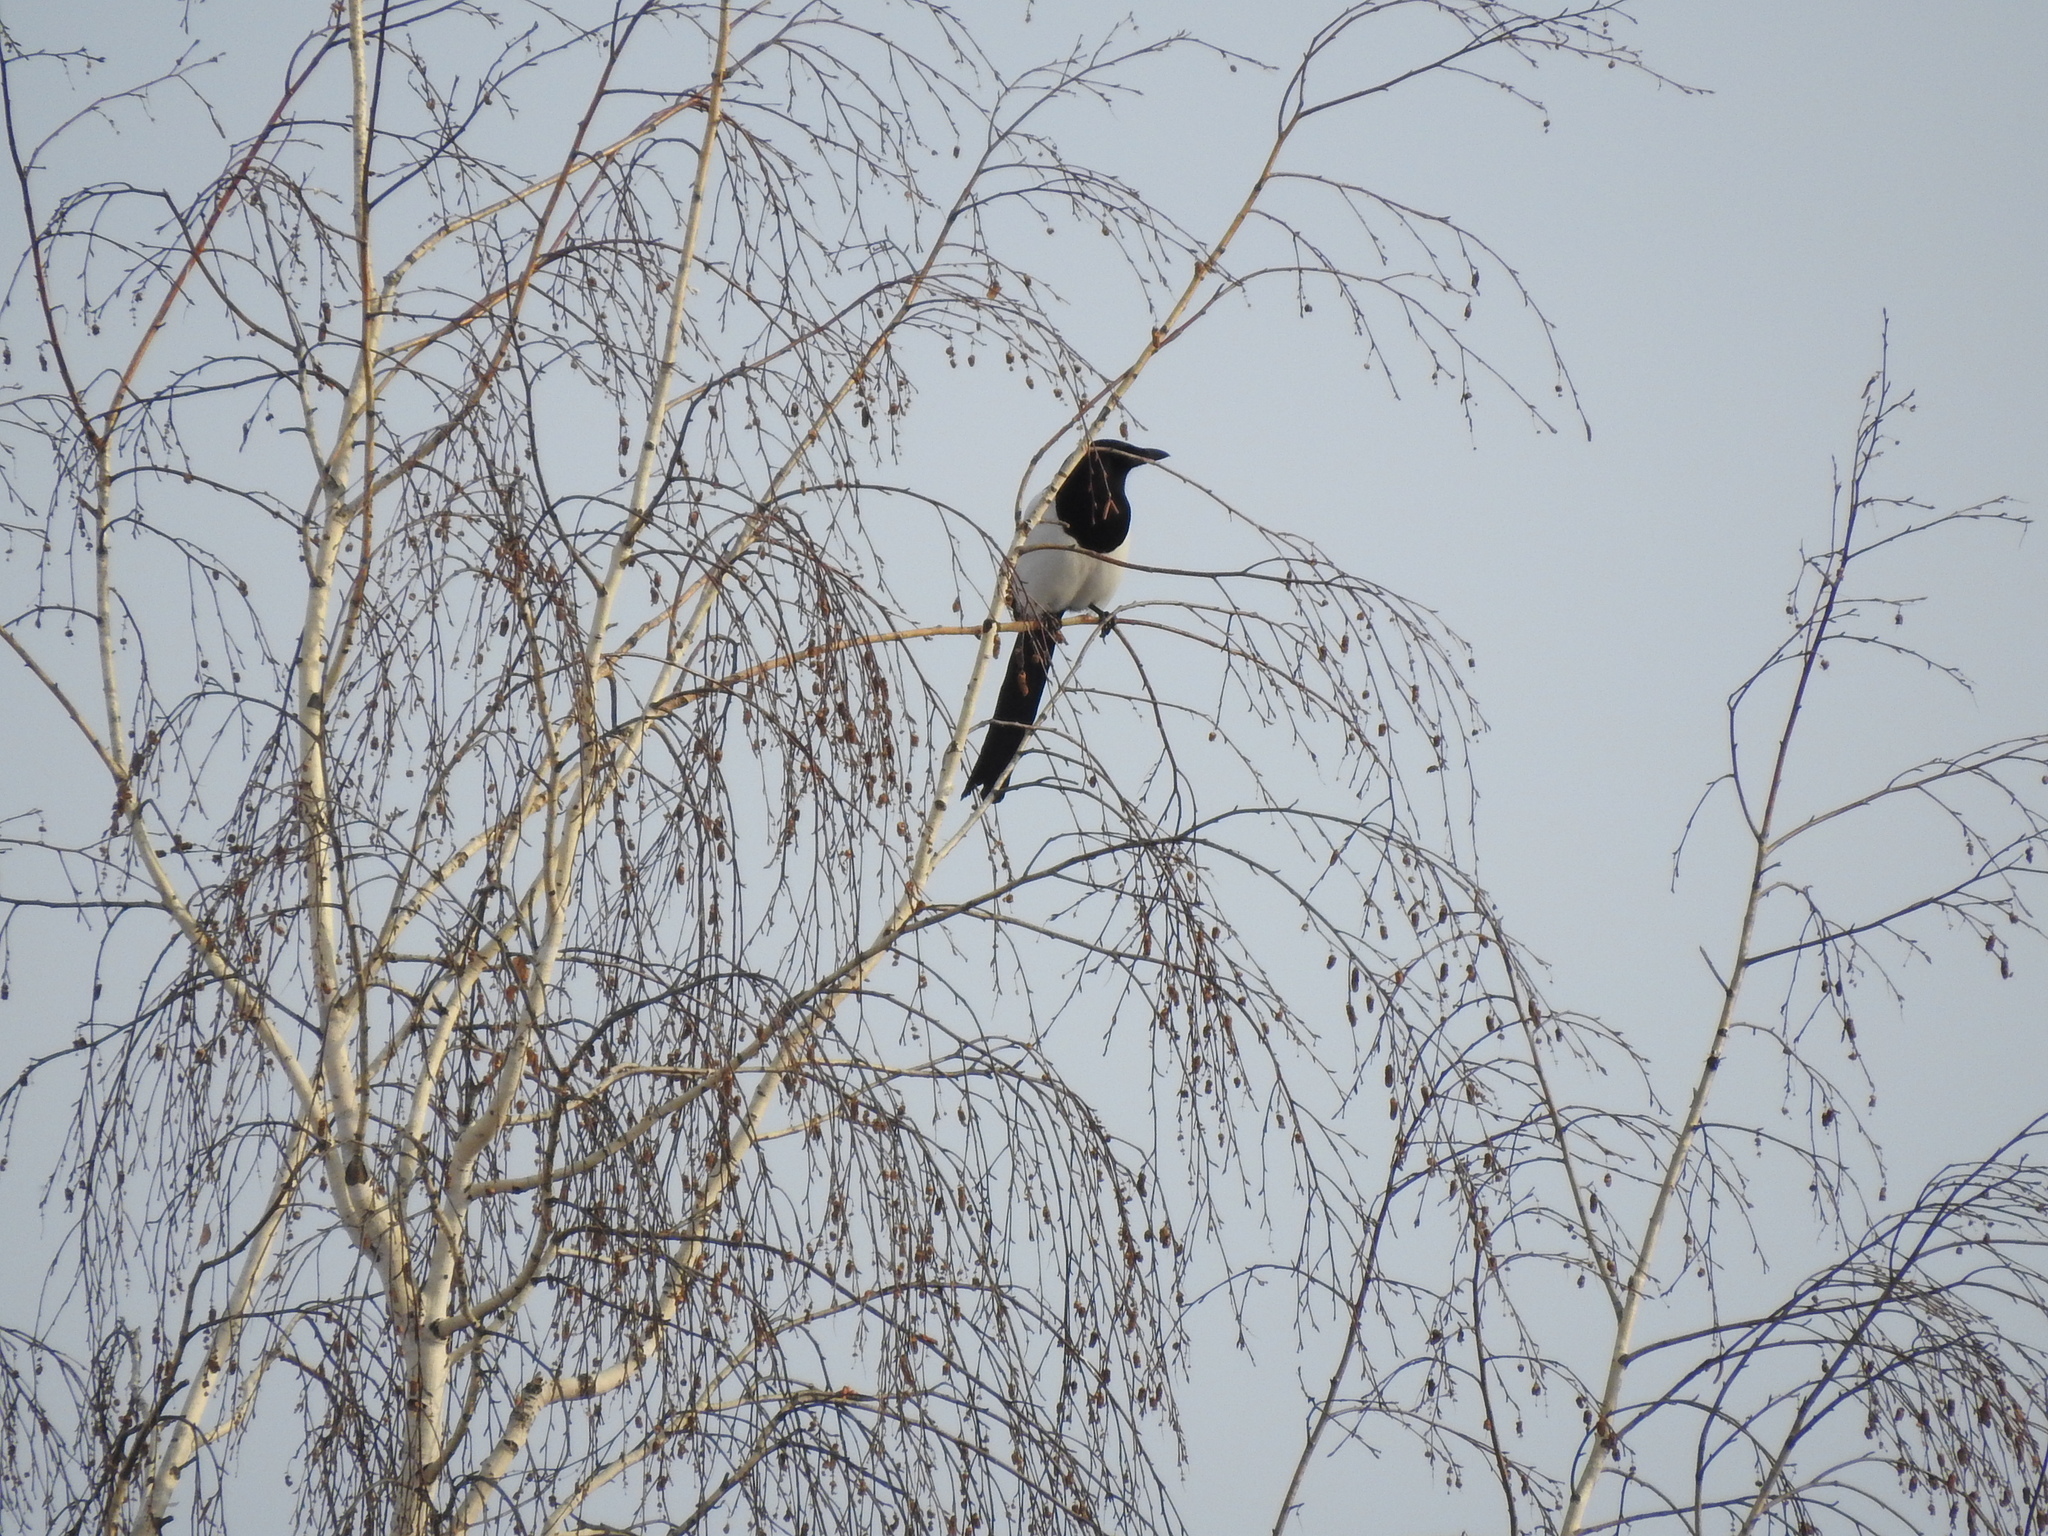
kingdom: Animalia
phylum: Chordata
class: Aves
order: Passeriformes
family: Corvidae
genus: Pica
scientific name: Pica pica
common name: Eurasian magpie
